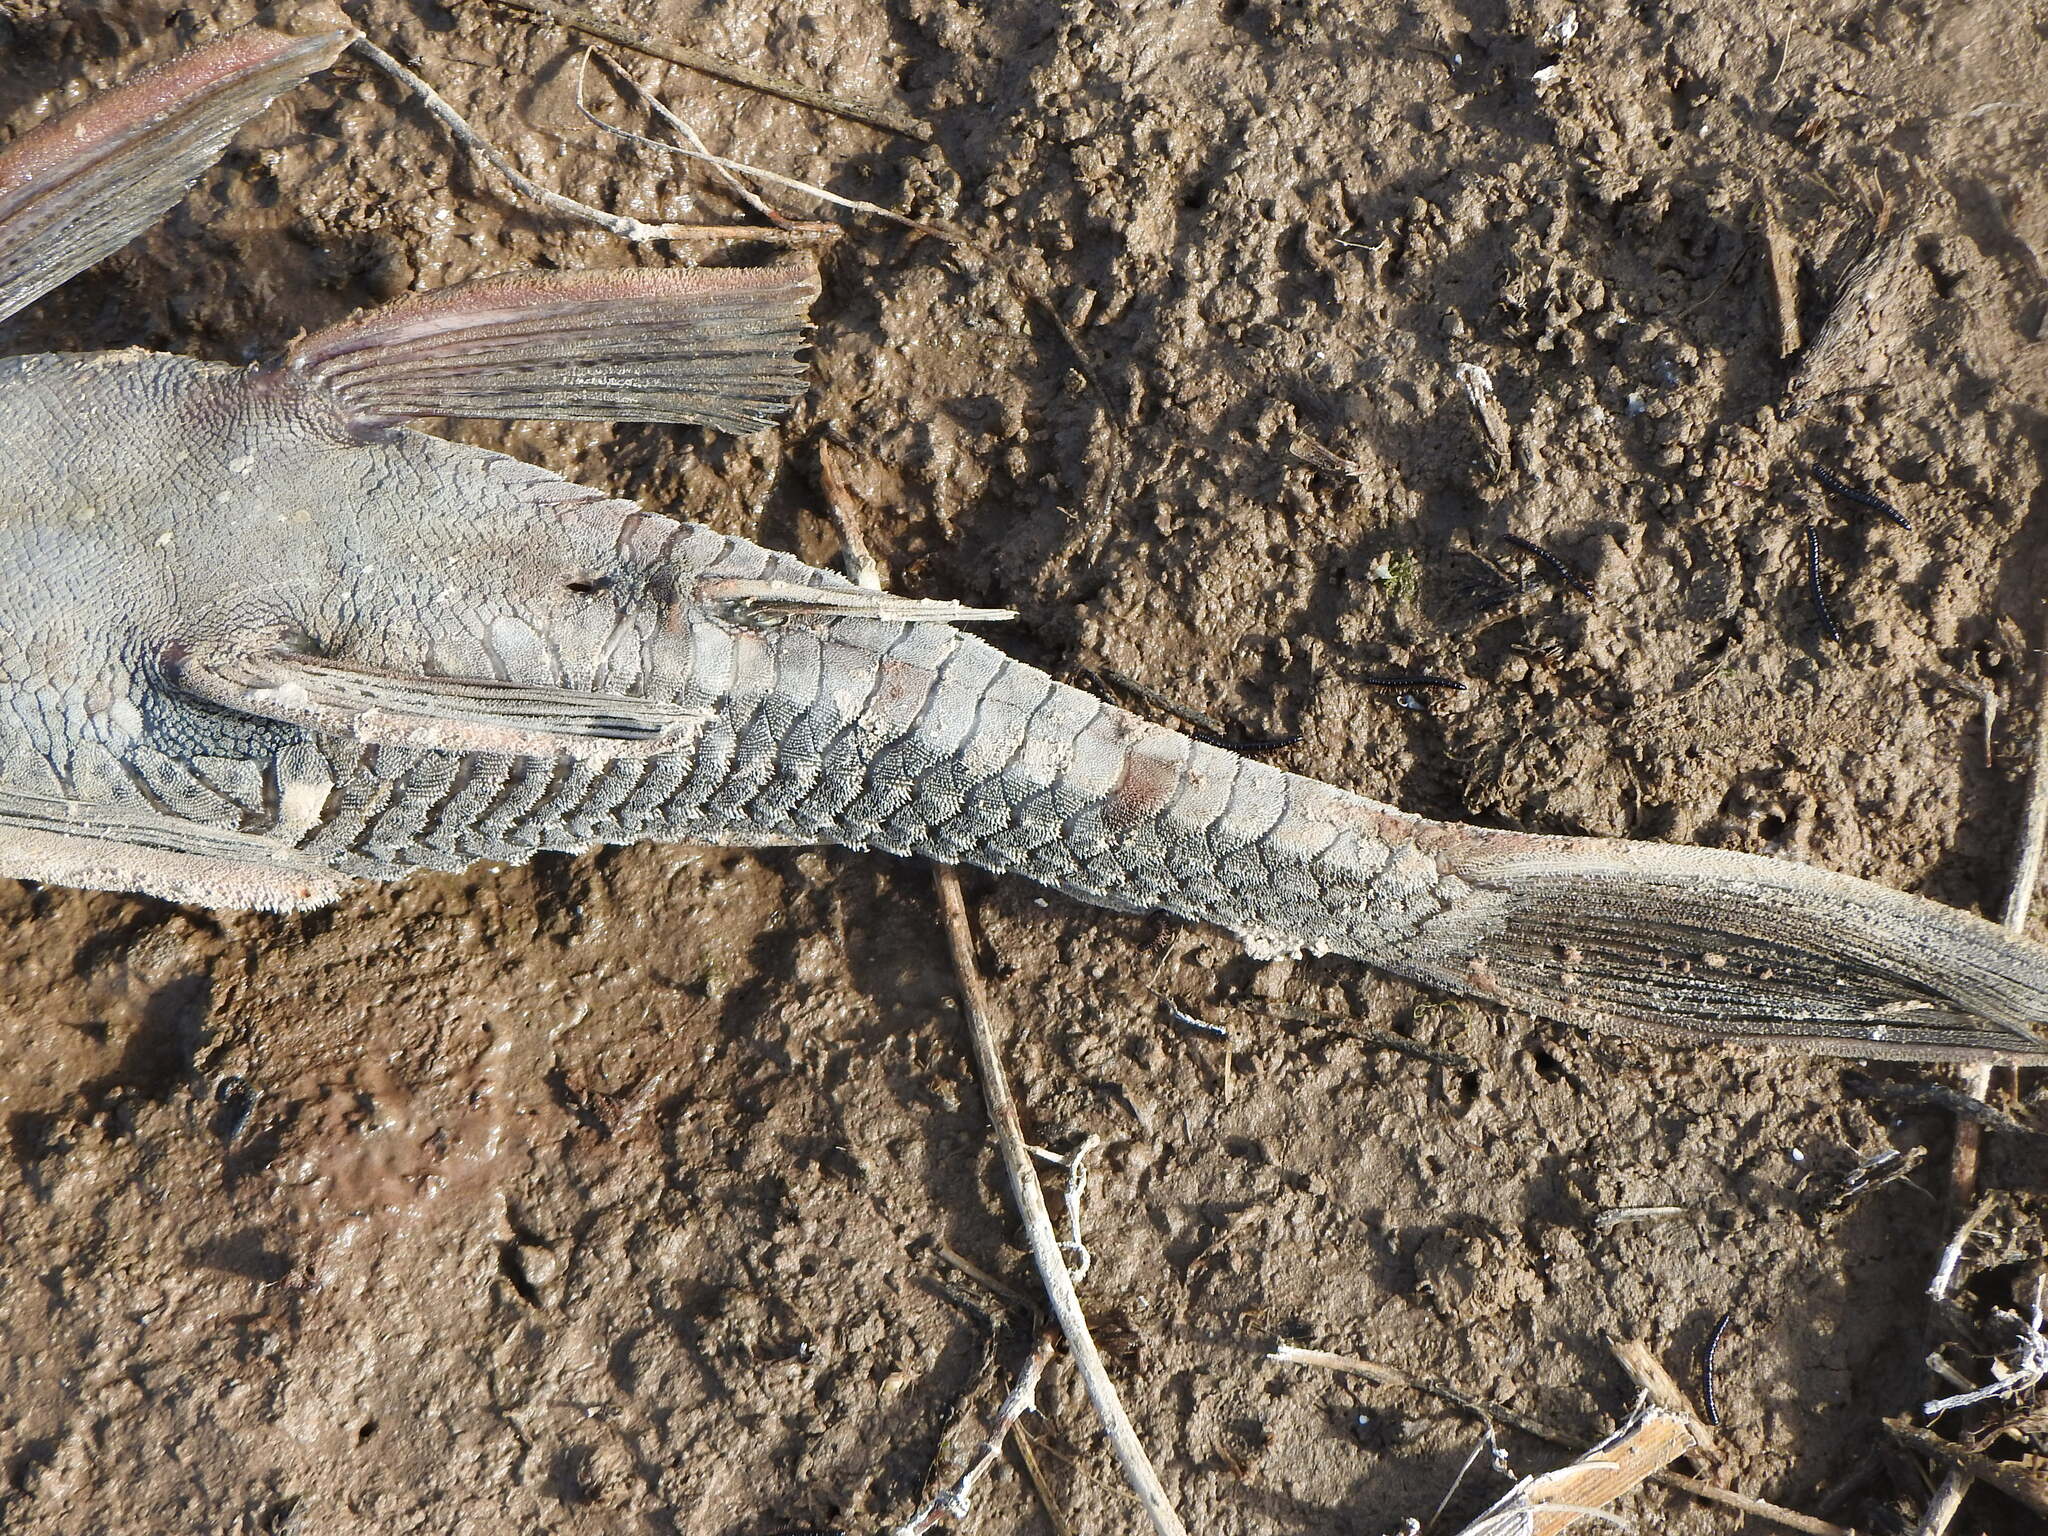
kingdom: Animalia
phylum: Chordata
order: Siluriformes
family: Loricariidae
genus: Hypostomus
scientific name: Hypostomus commersoni
